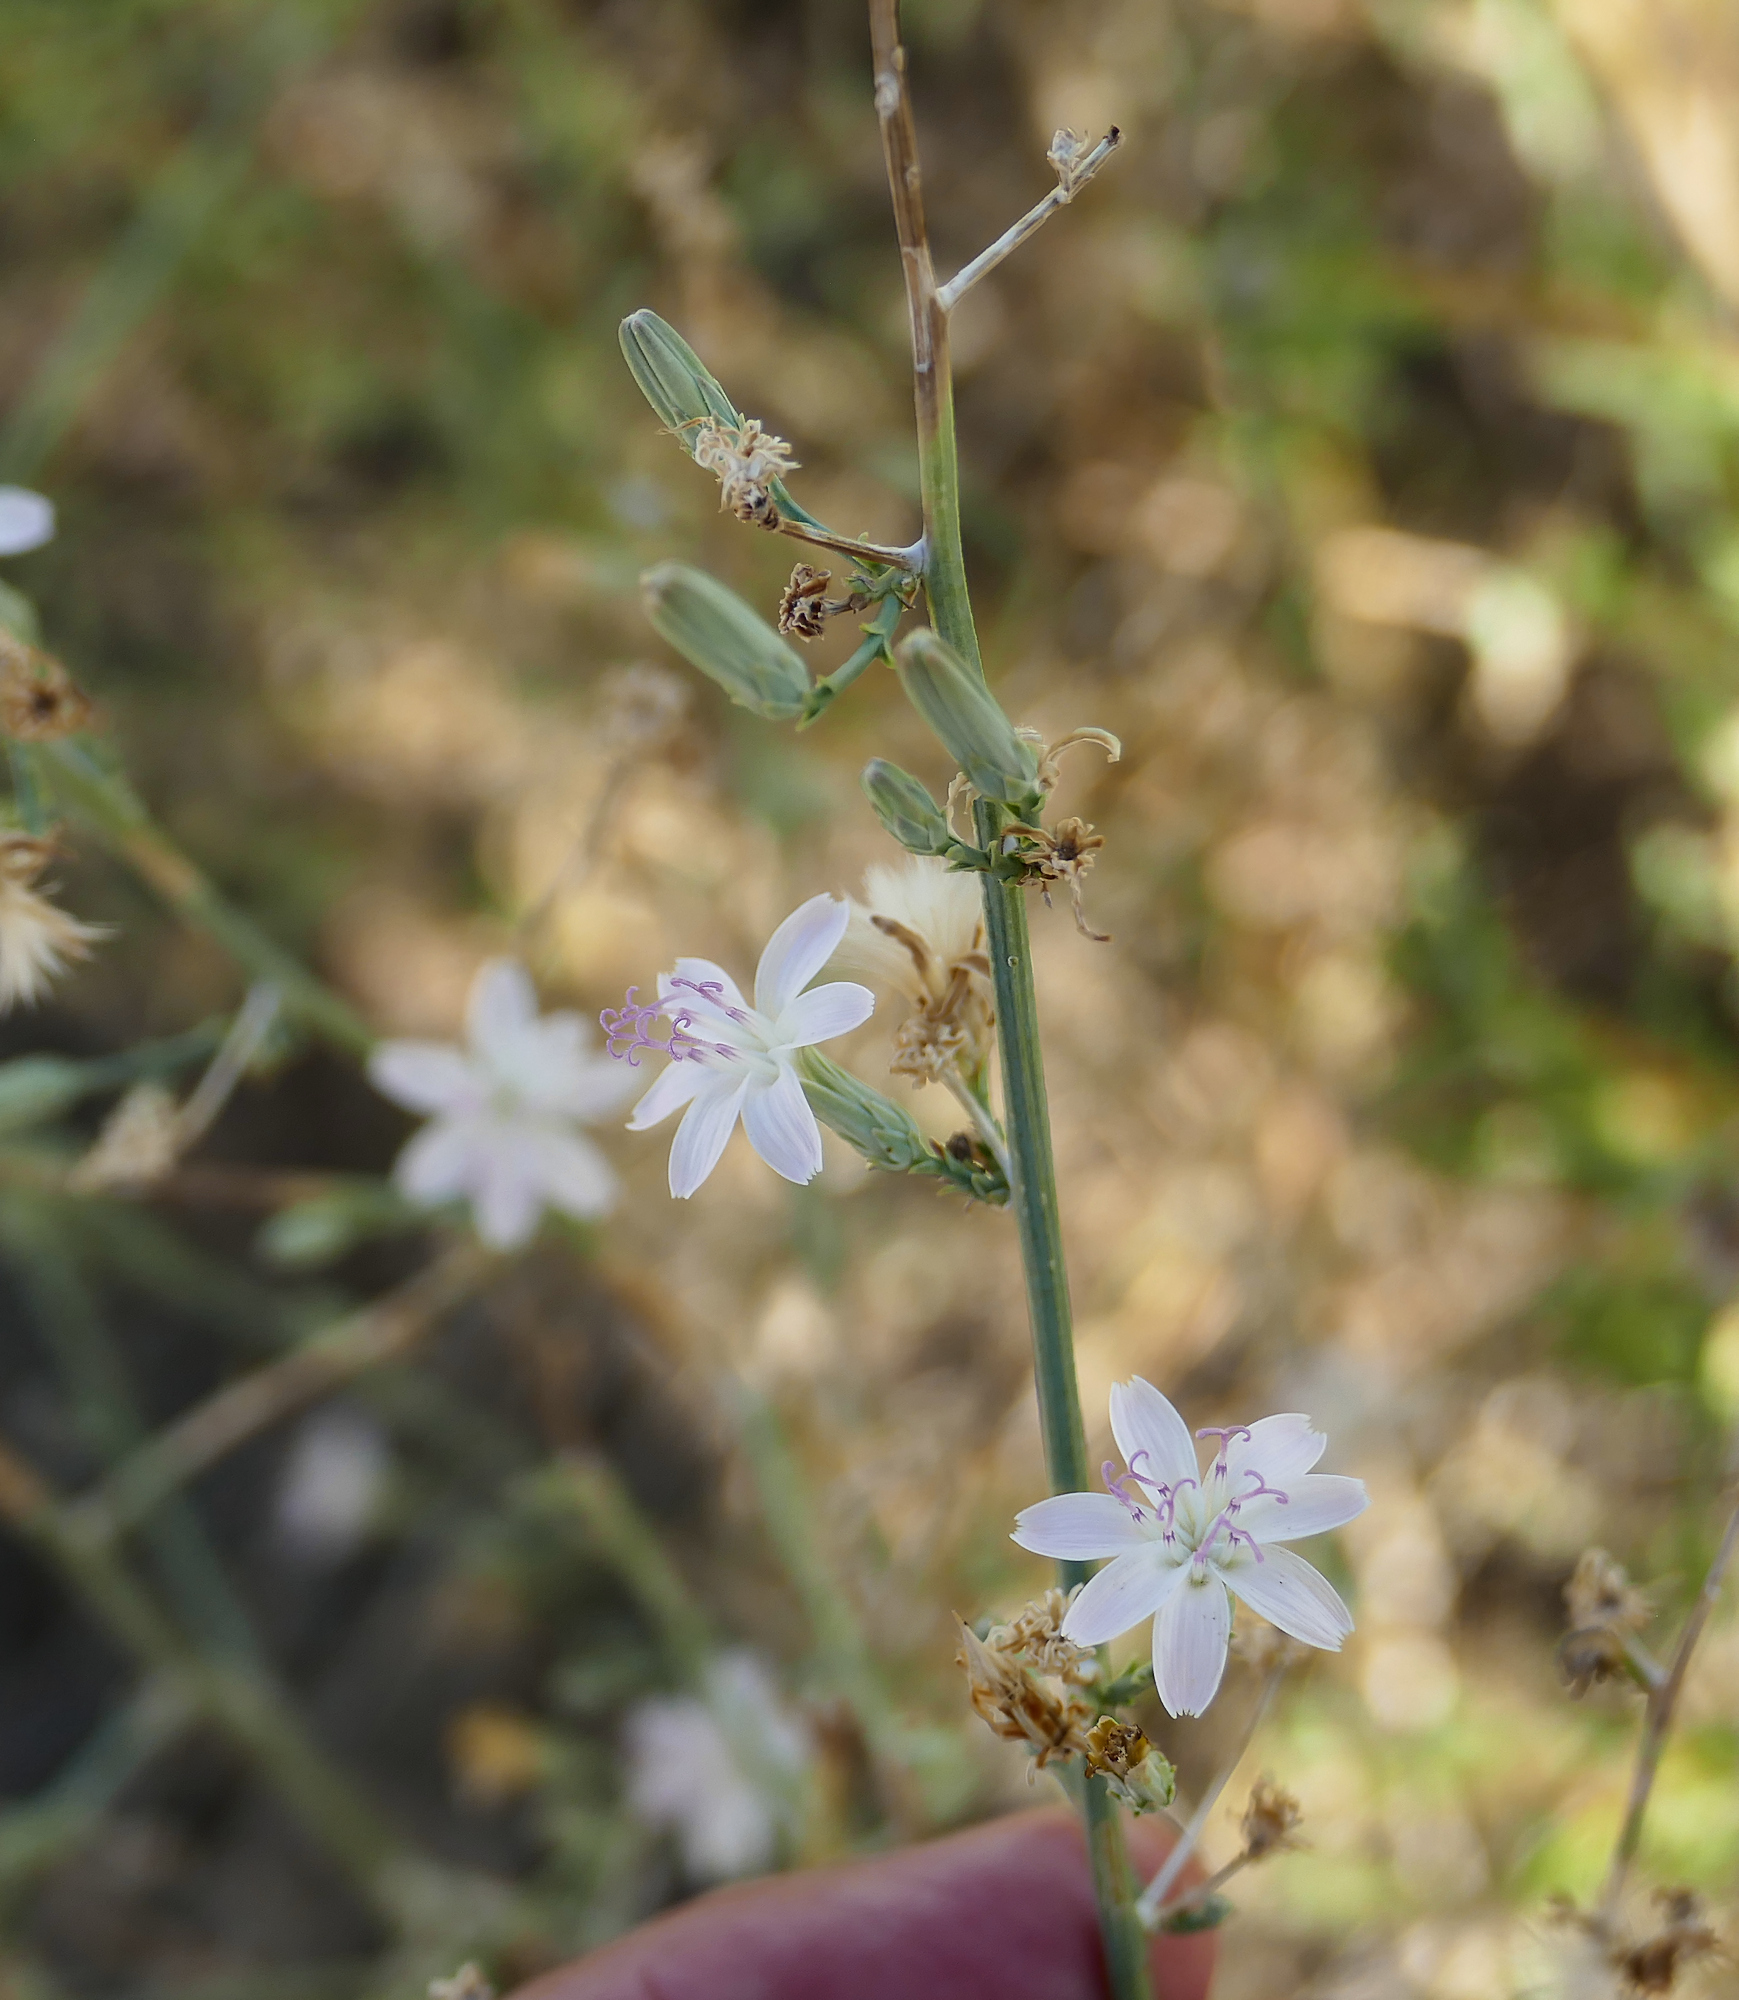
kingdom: Plantae
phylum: Tracheophyta
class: Magnoliopsida
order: Asterales
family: Asteraceae
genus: Stephanomeria
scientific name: Stephanomeria pauciflora
